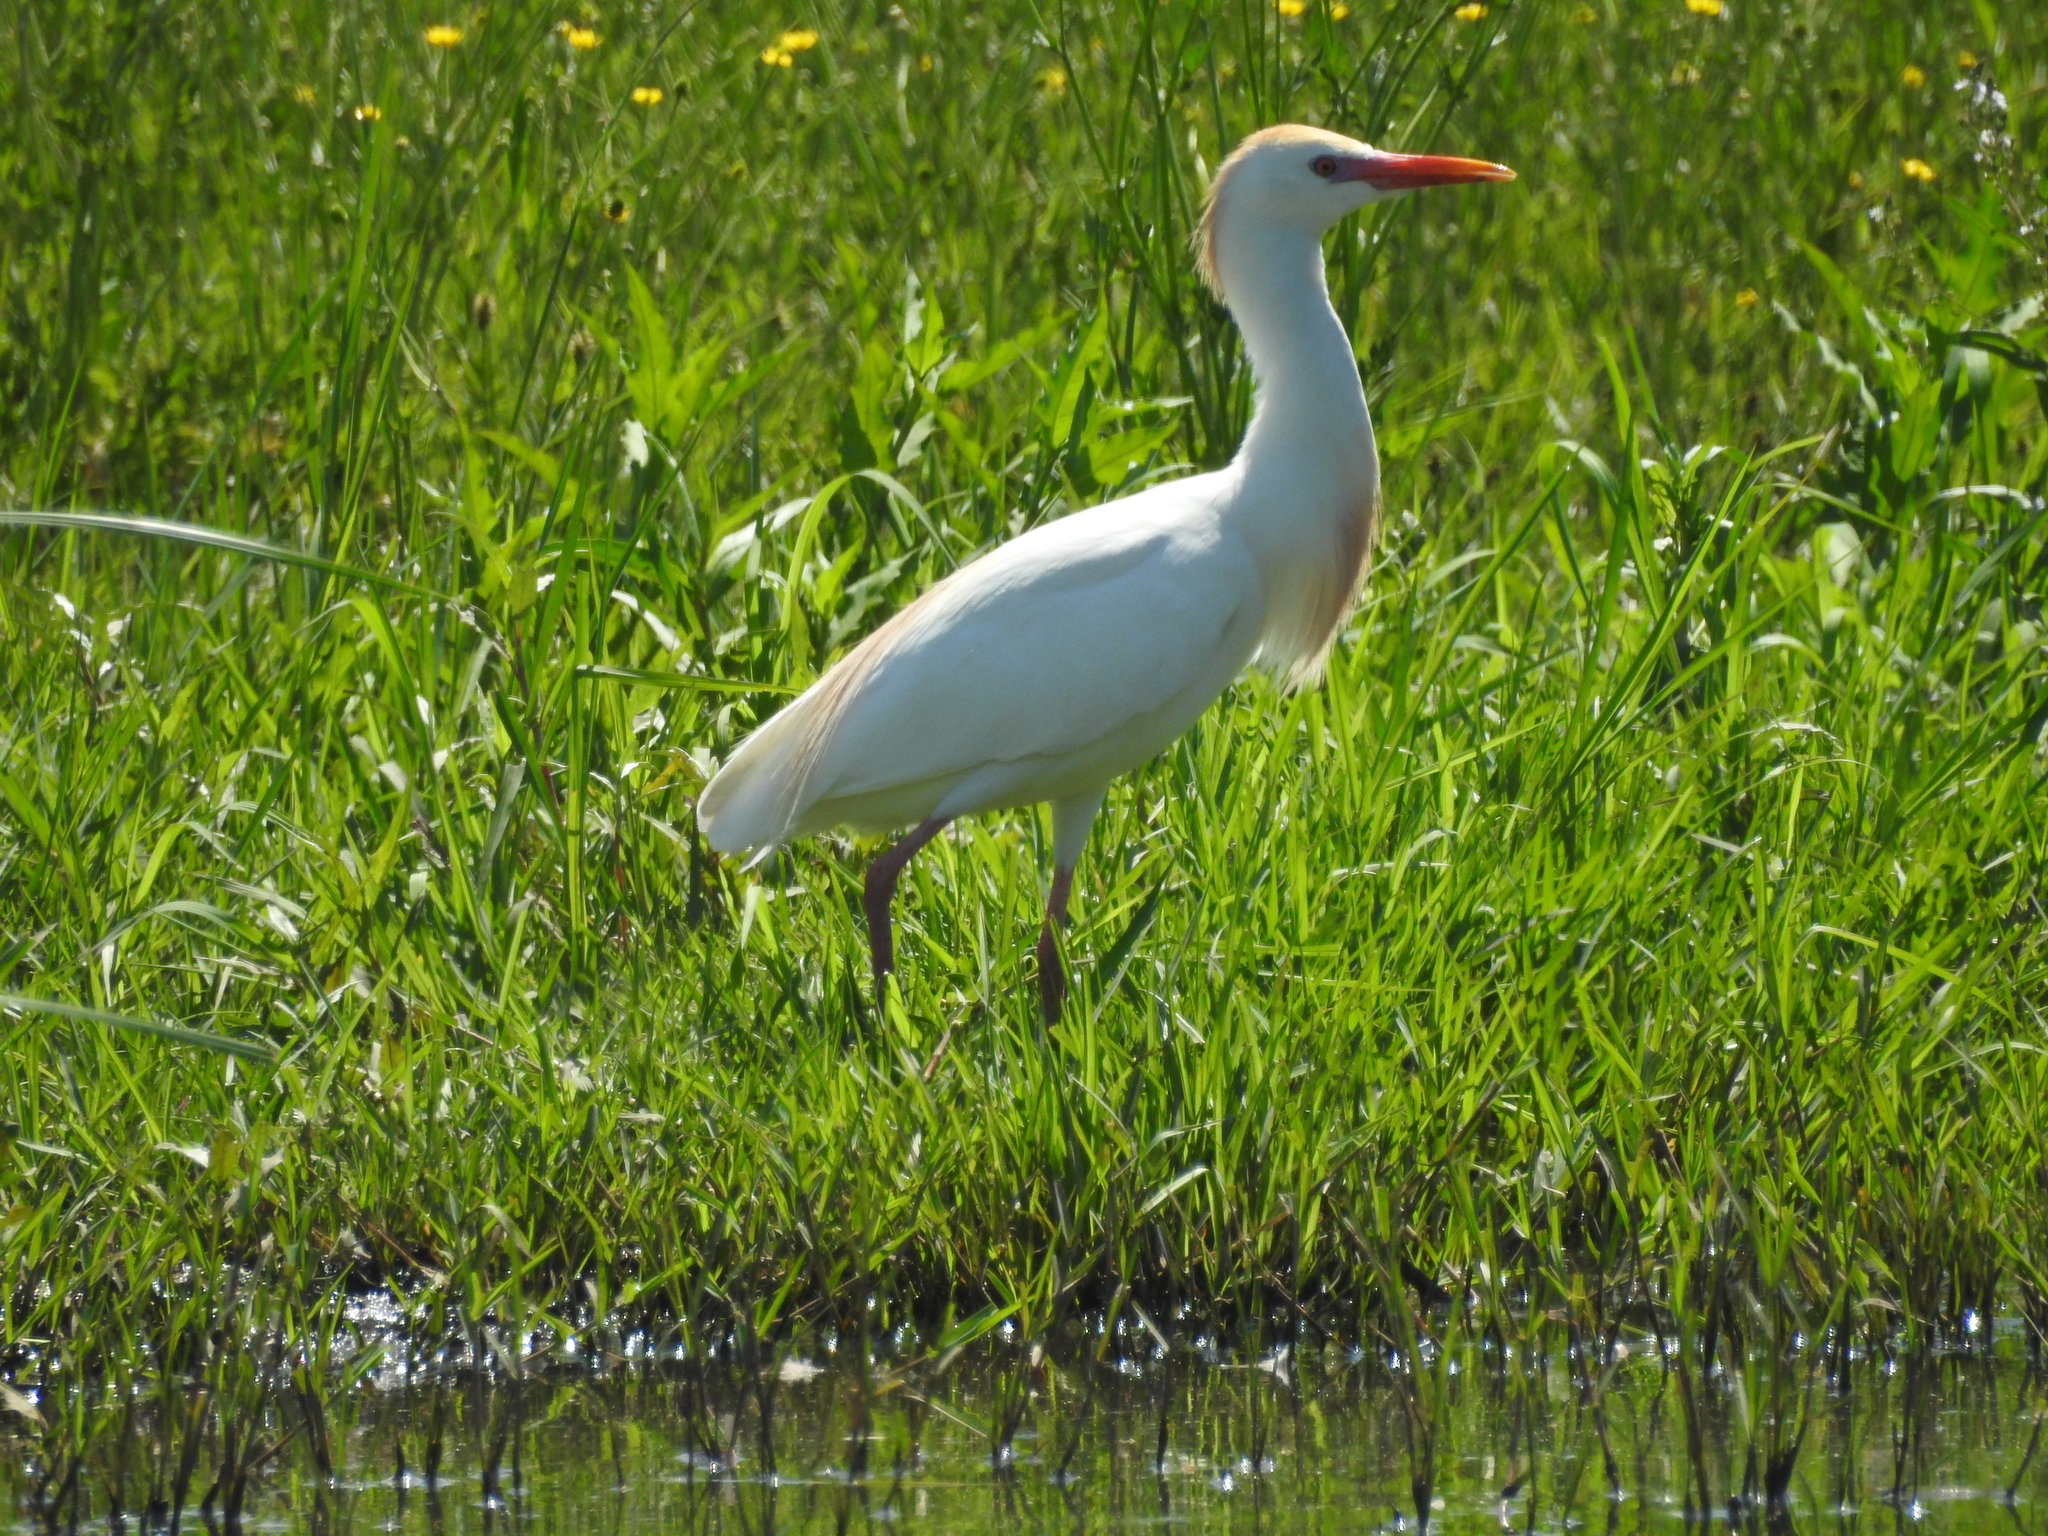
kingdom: Animalia
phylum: Chordata
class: Aves
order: Pelecaniformes
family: Ardeidae
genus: Bubulcus
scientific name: Bubulcus ibis
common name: Cattle egret
